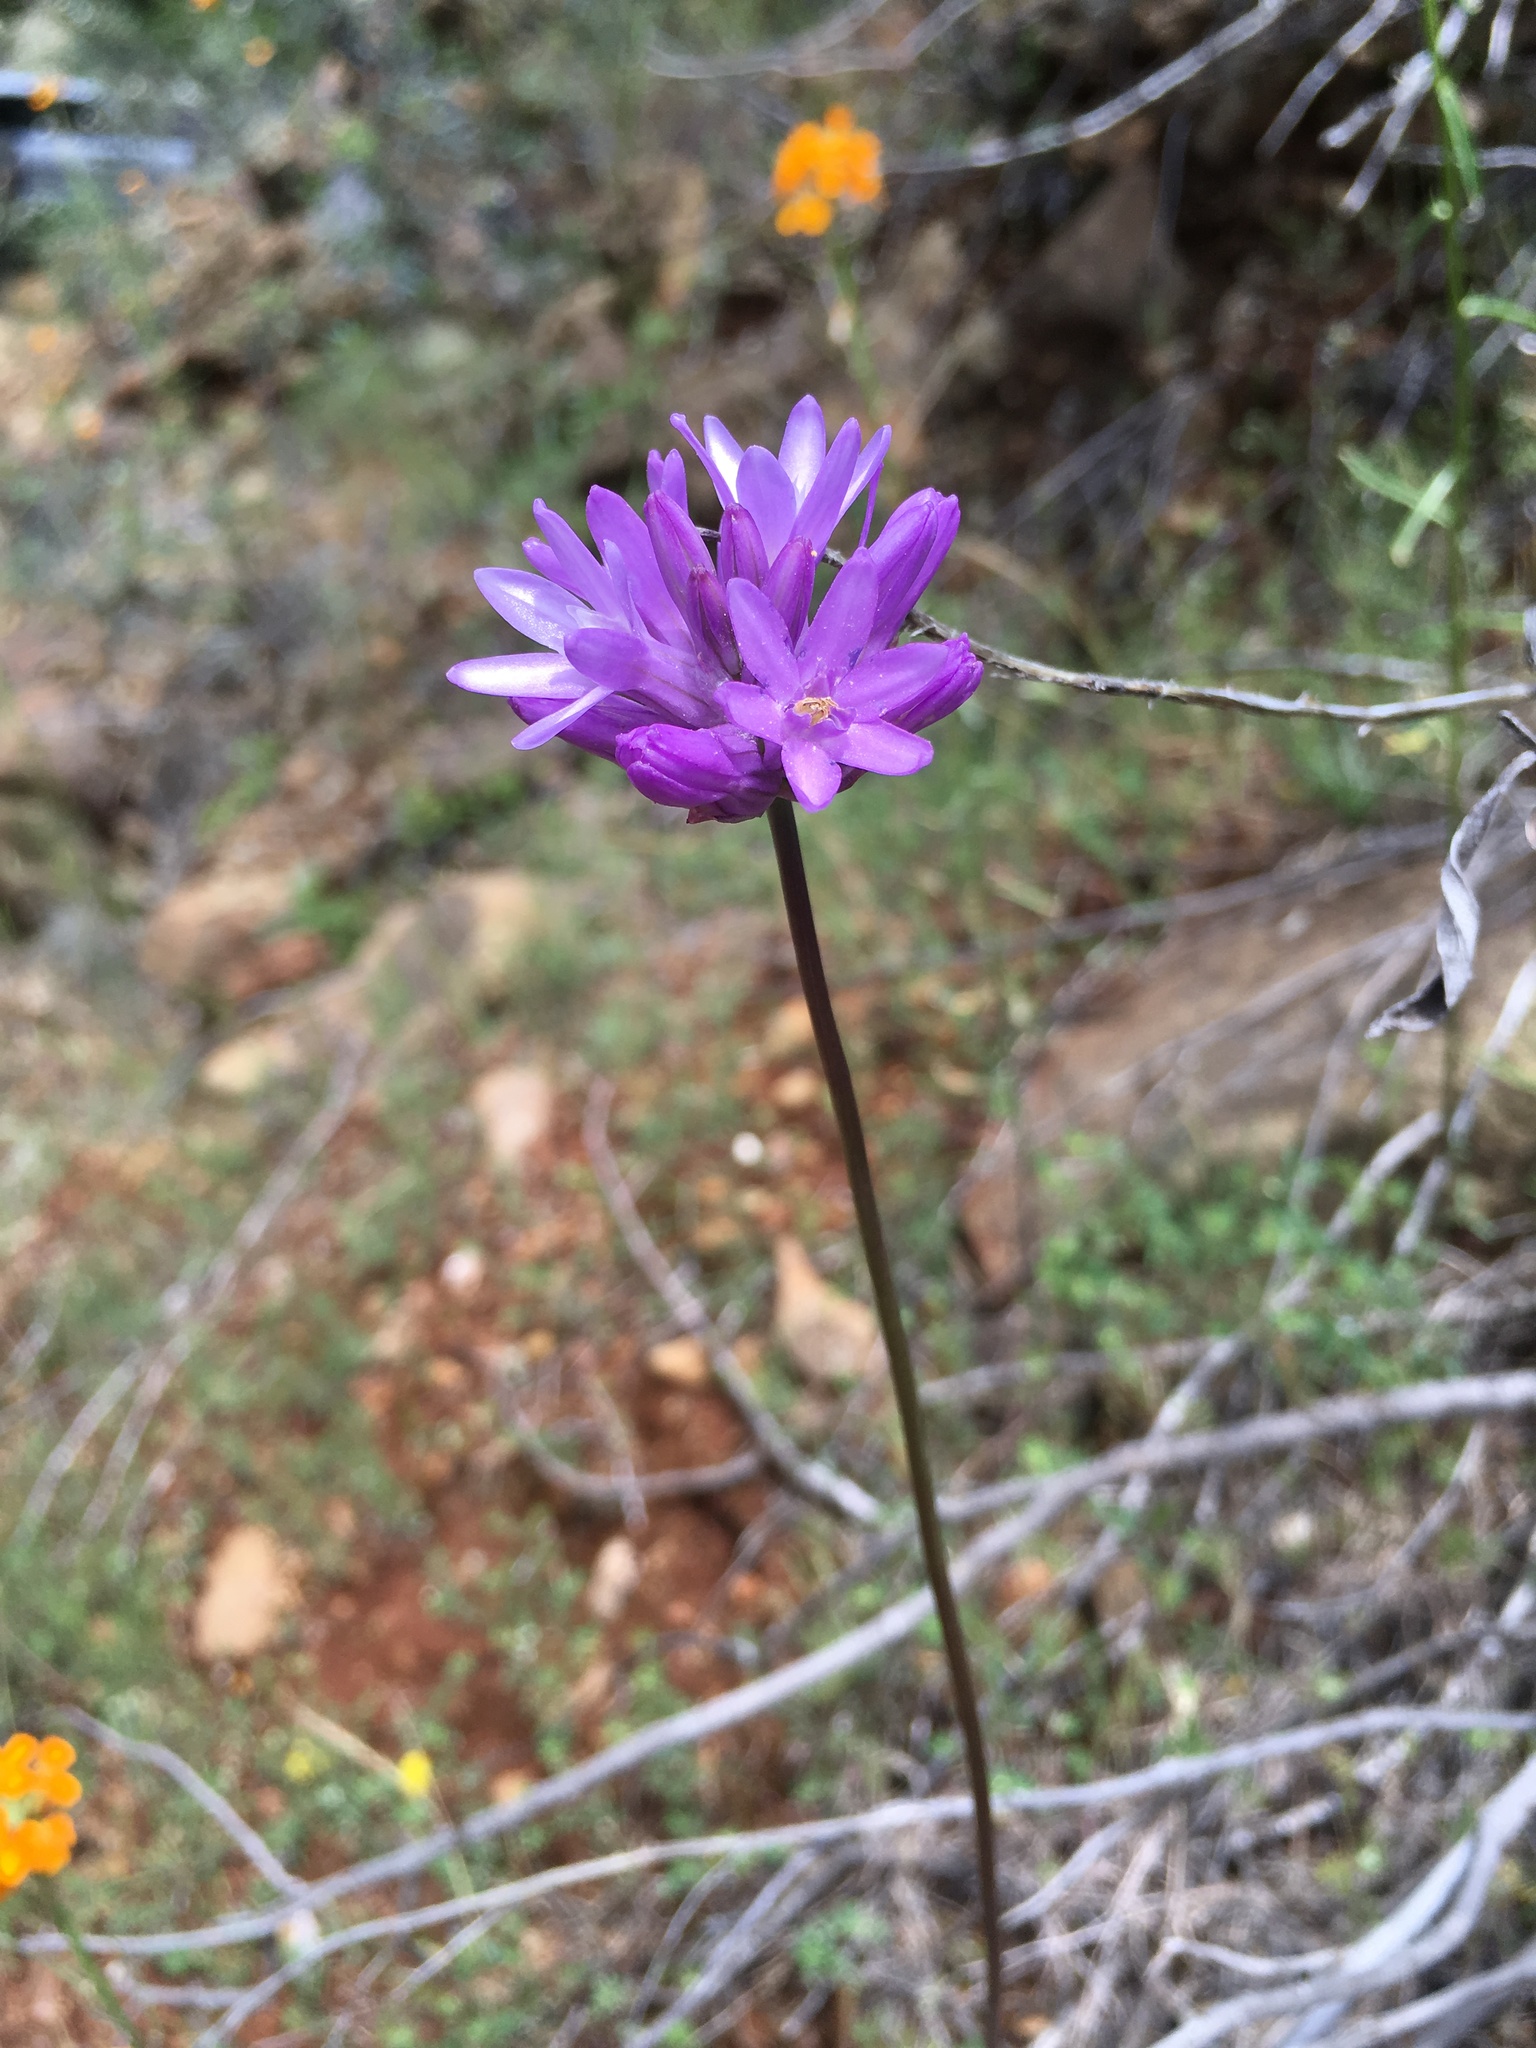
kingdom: Plantae
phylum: Tracheophyta
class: Liliopsida
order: Asparagales
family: Asparagaceae
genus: Dichelostemma
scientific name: Dichelostemma congestum
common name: Fork-tooth ookow
